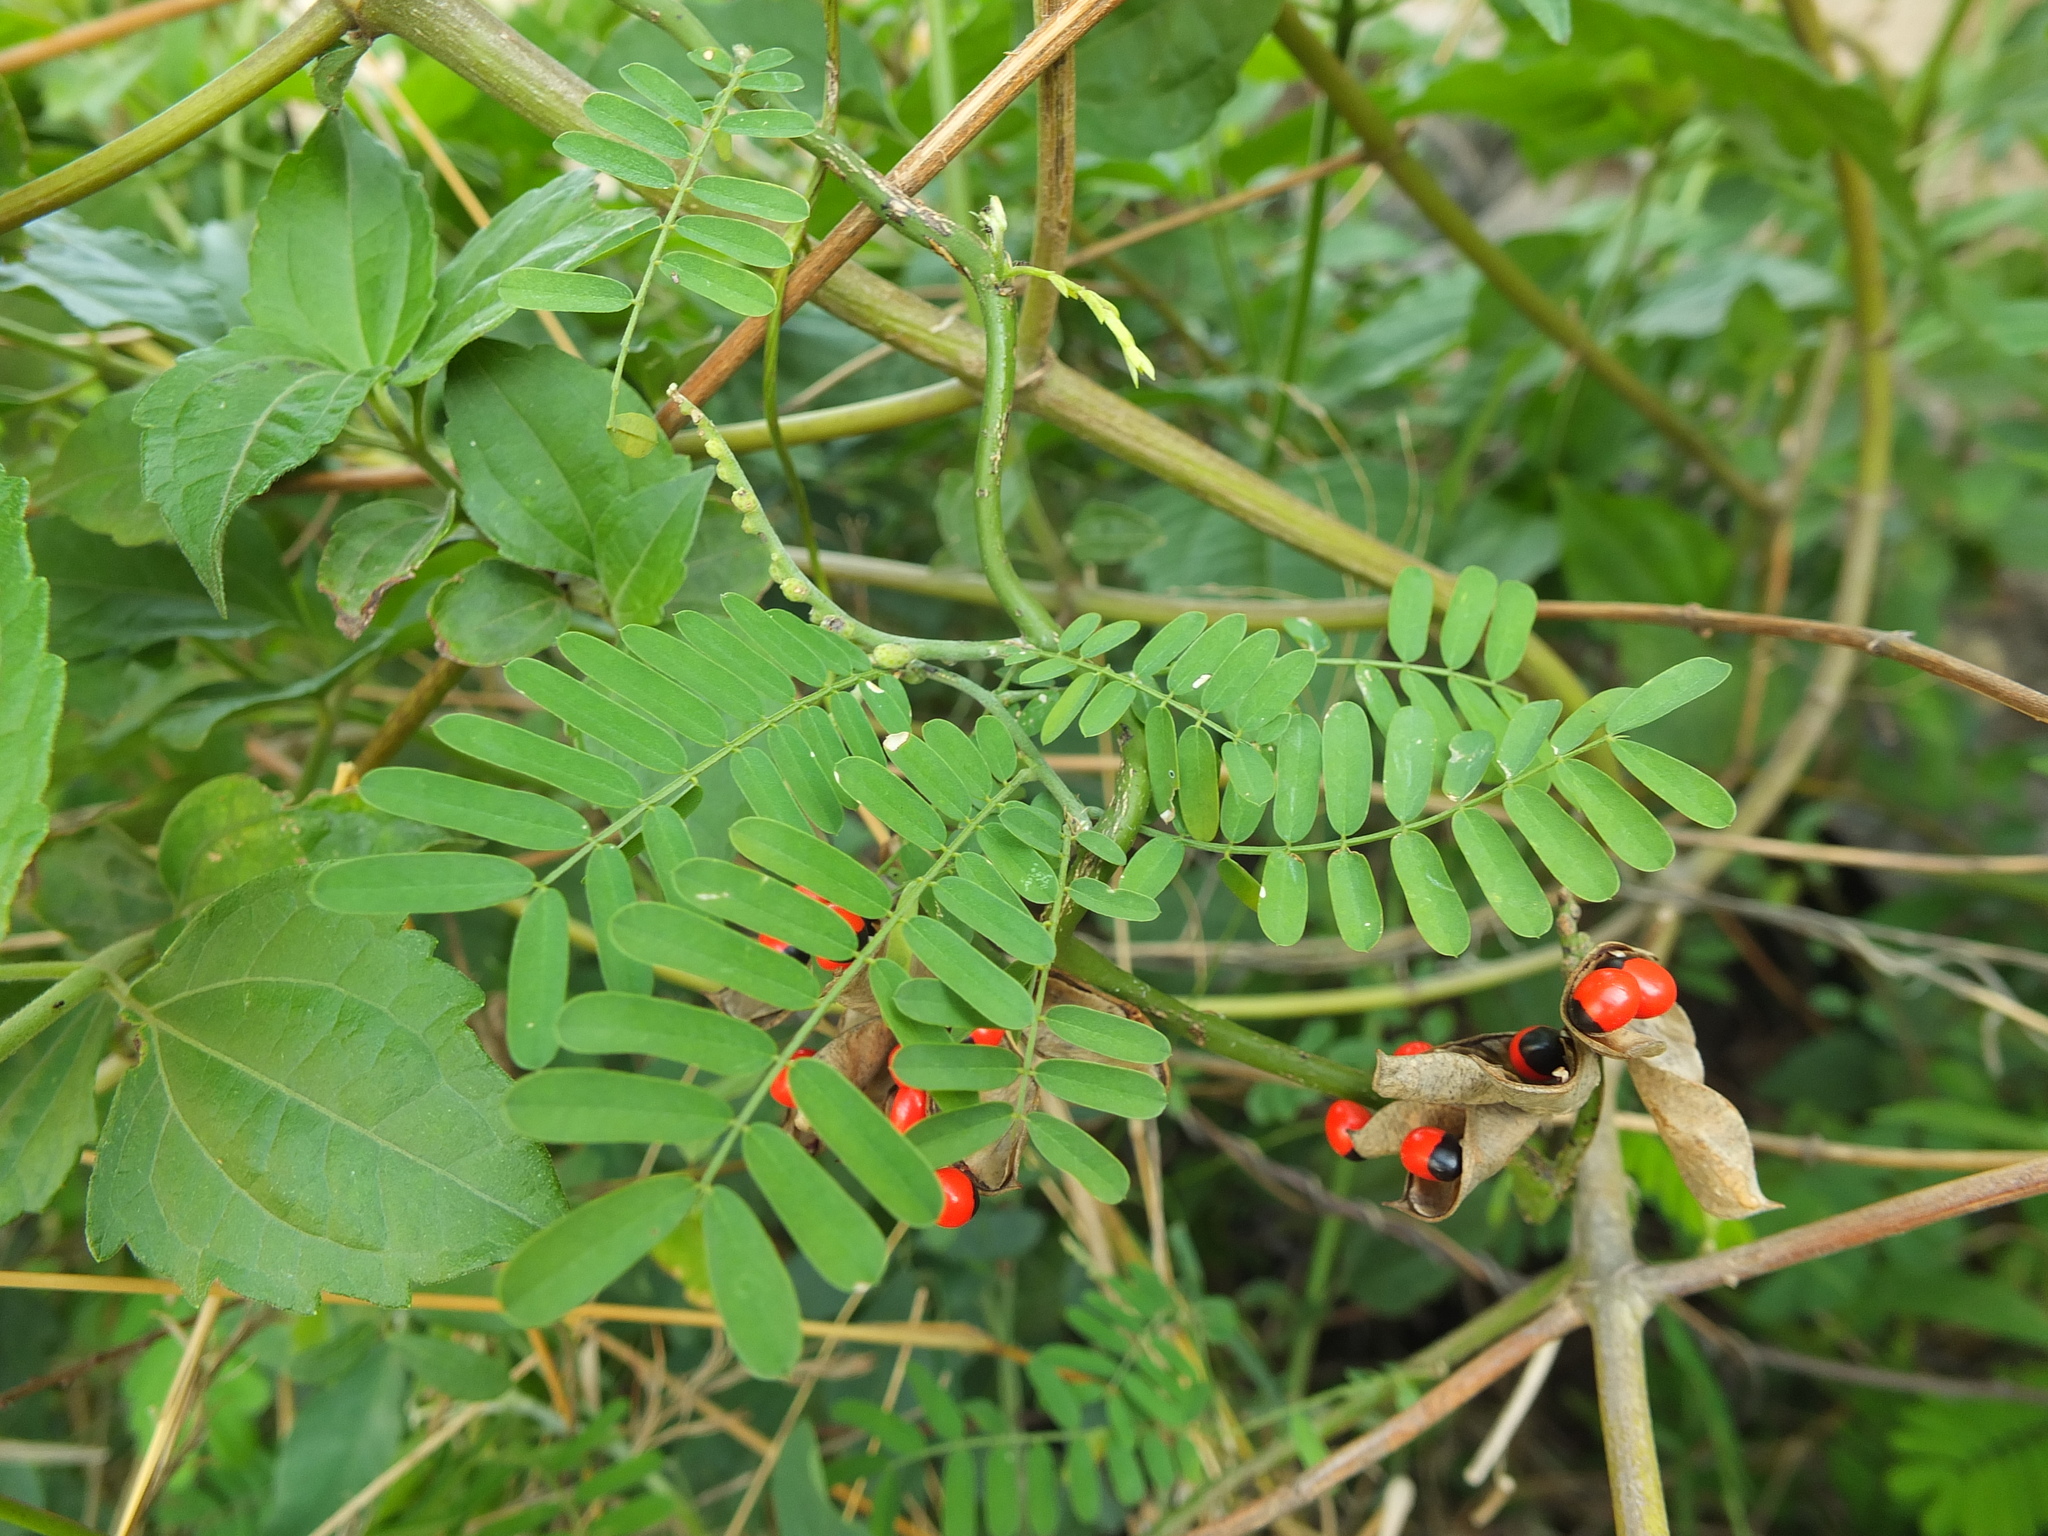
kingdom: Plantae
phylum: Tracheophyta
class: Magnoliopsida
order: Fabales
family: Fabaceae
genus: Abrus
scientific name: Abrus precatorius
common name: Rosarypea
